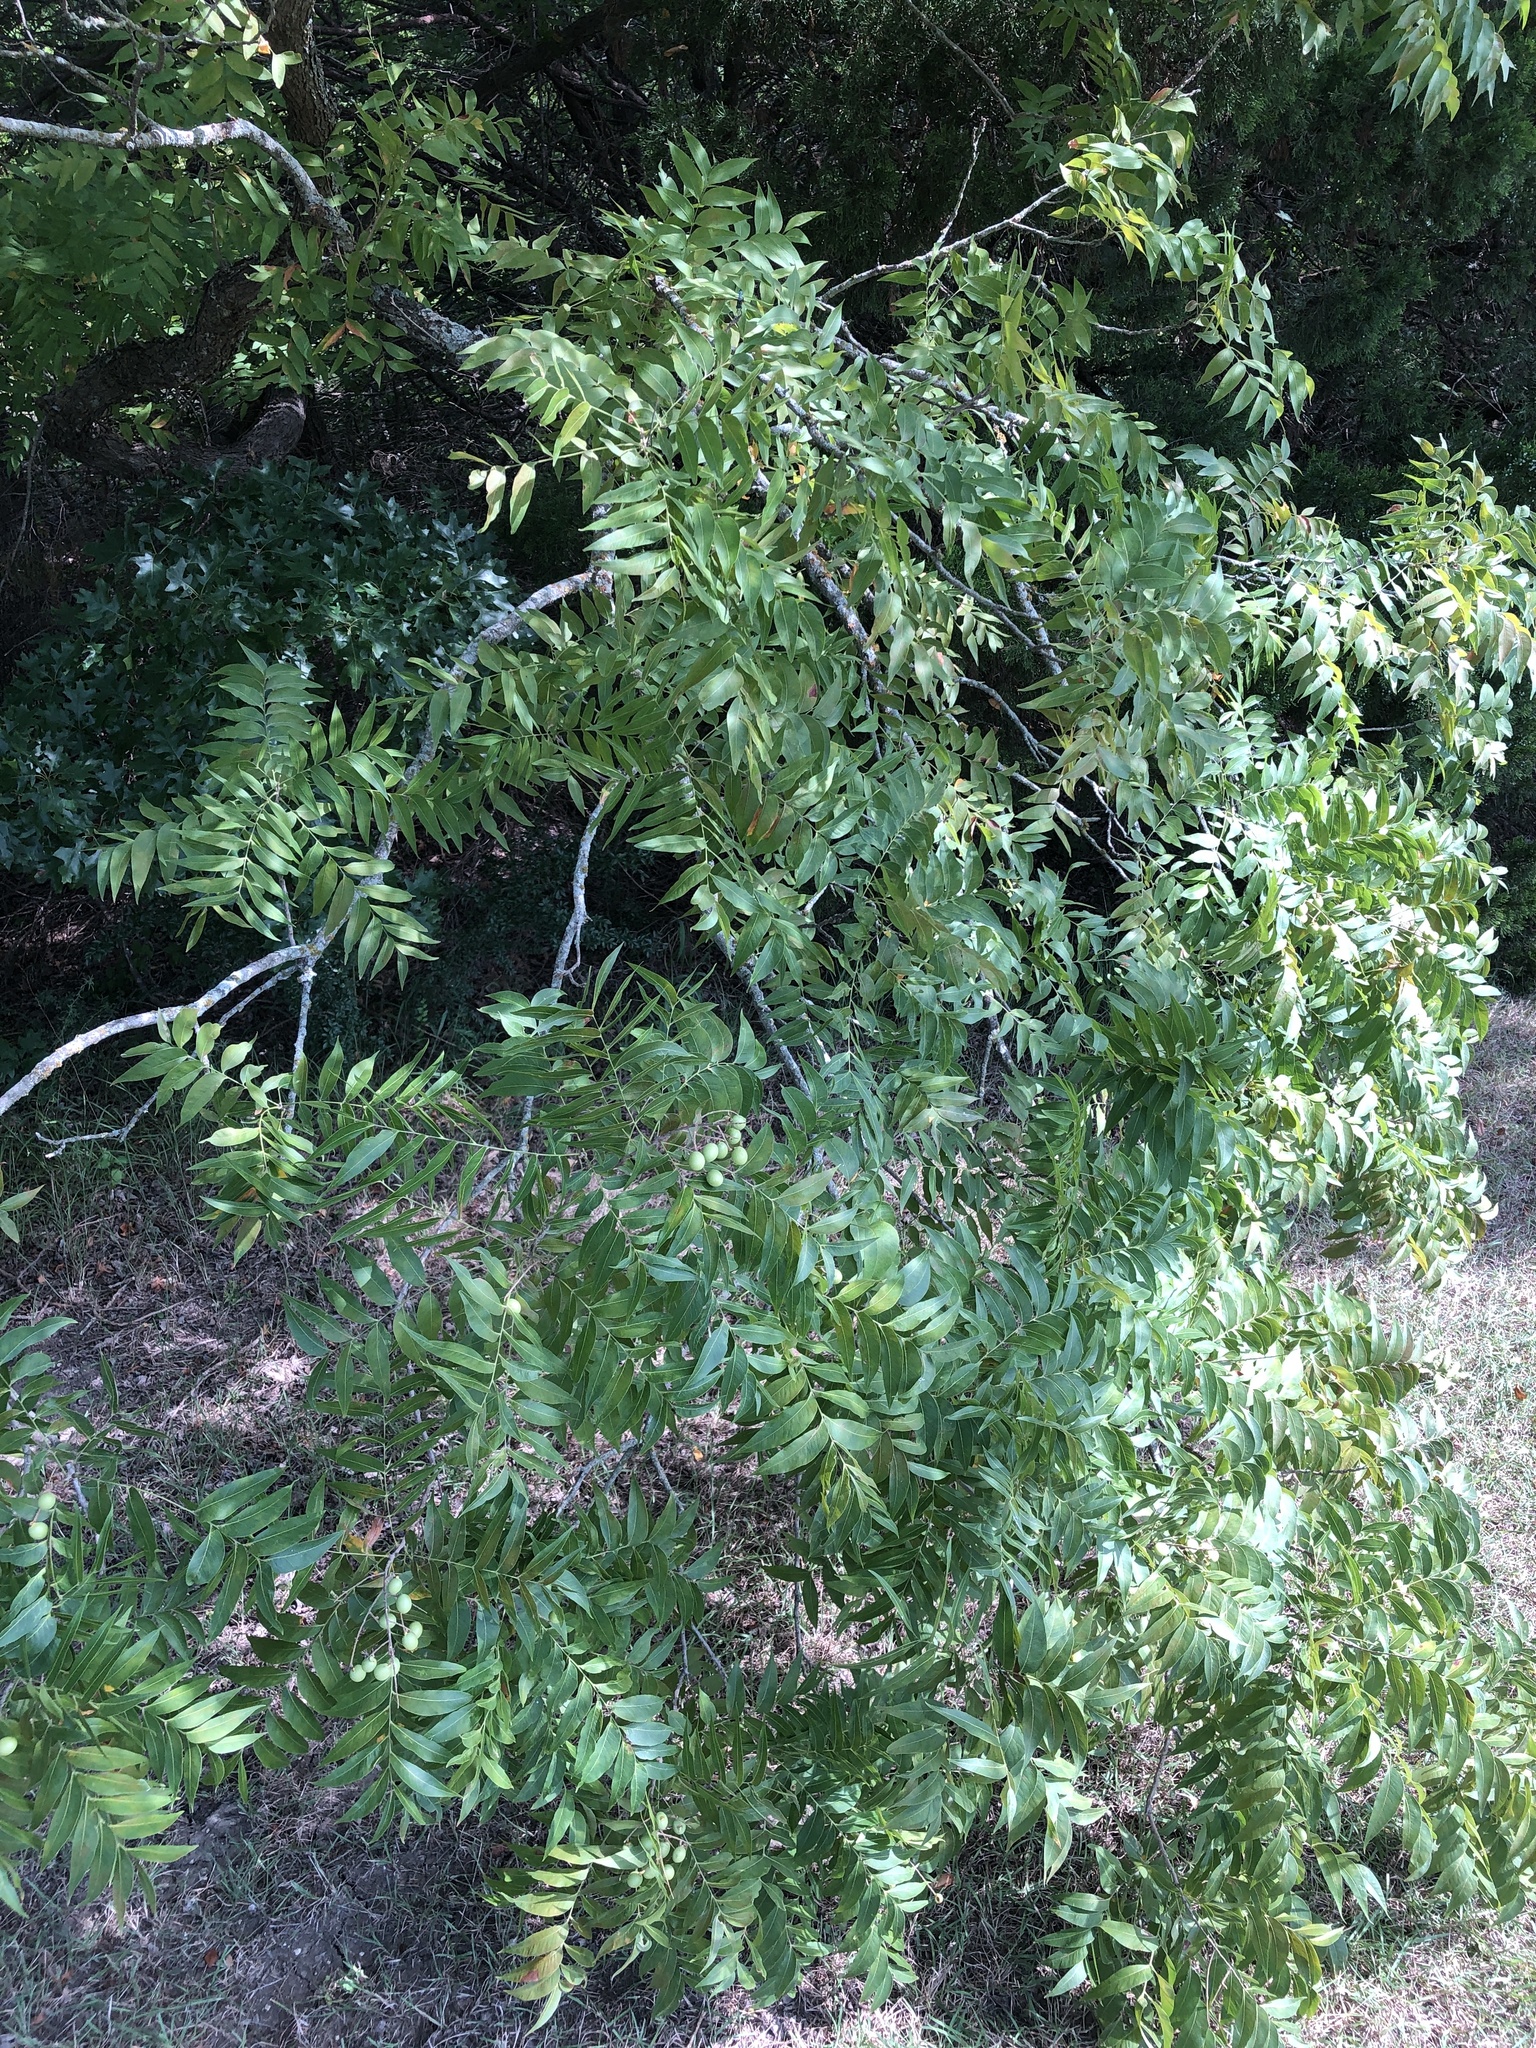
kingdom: Plantae
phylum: Tracheophyta
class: Magnoliopsida
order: Sapindales
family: Sapindaceae
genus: Sapindus
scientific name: Sapindus drummondii
